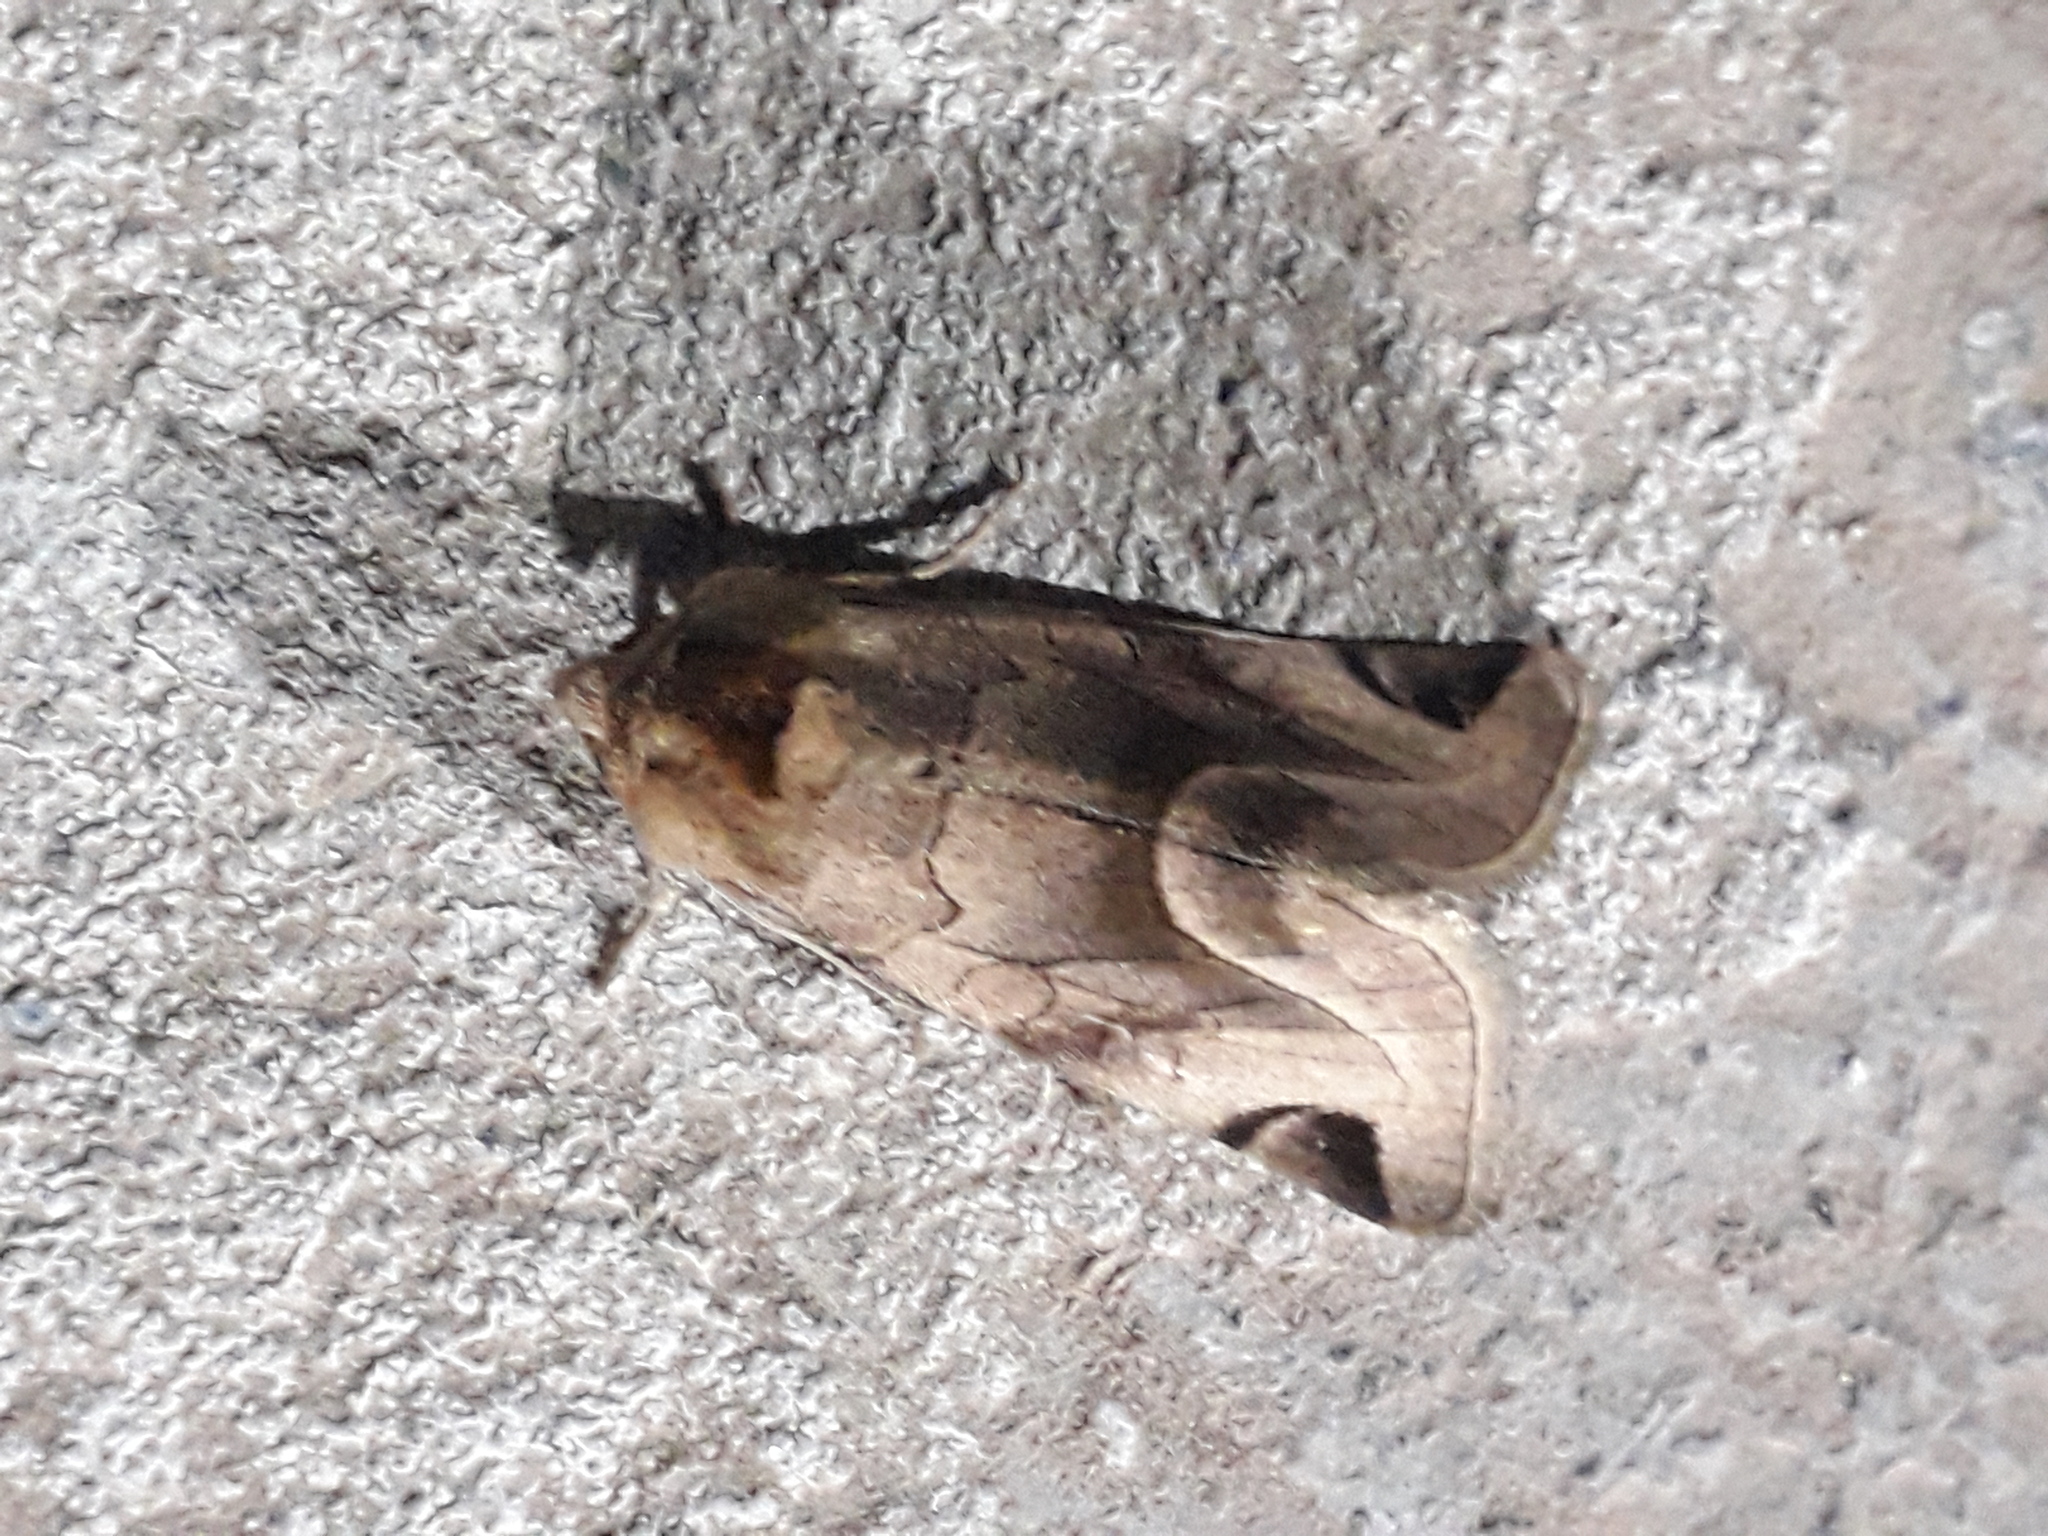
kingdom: Animalia
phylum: Arthropoda
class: Insecta
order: Lepidoptera
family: Noctuidae
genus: Plagiomimicus
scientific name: Plagiomimicus
